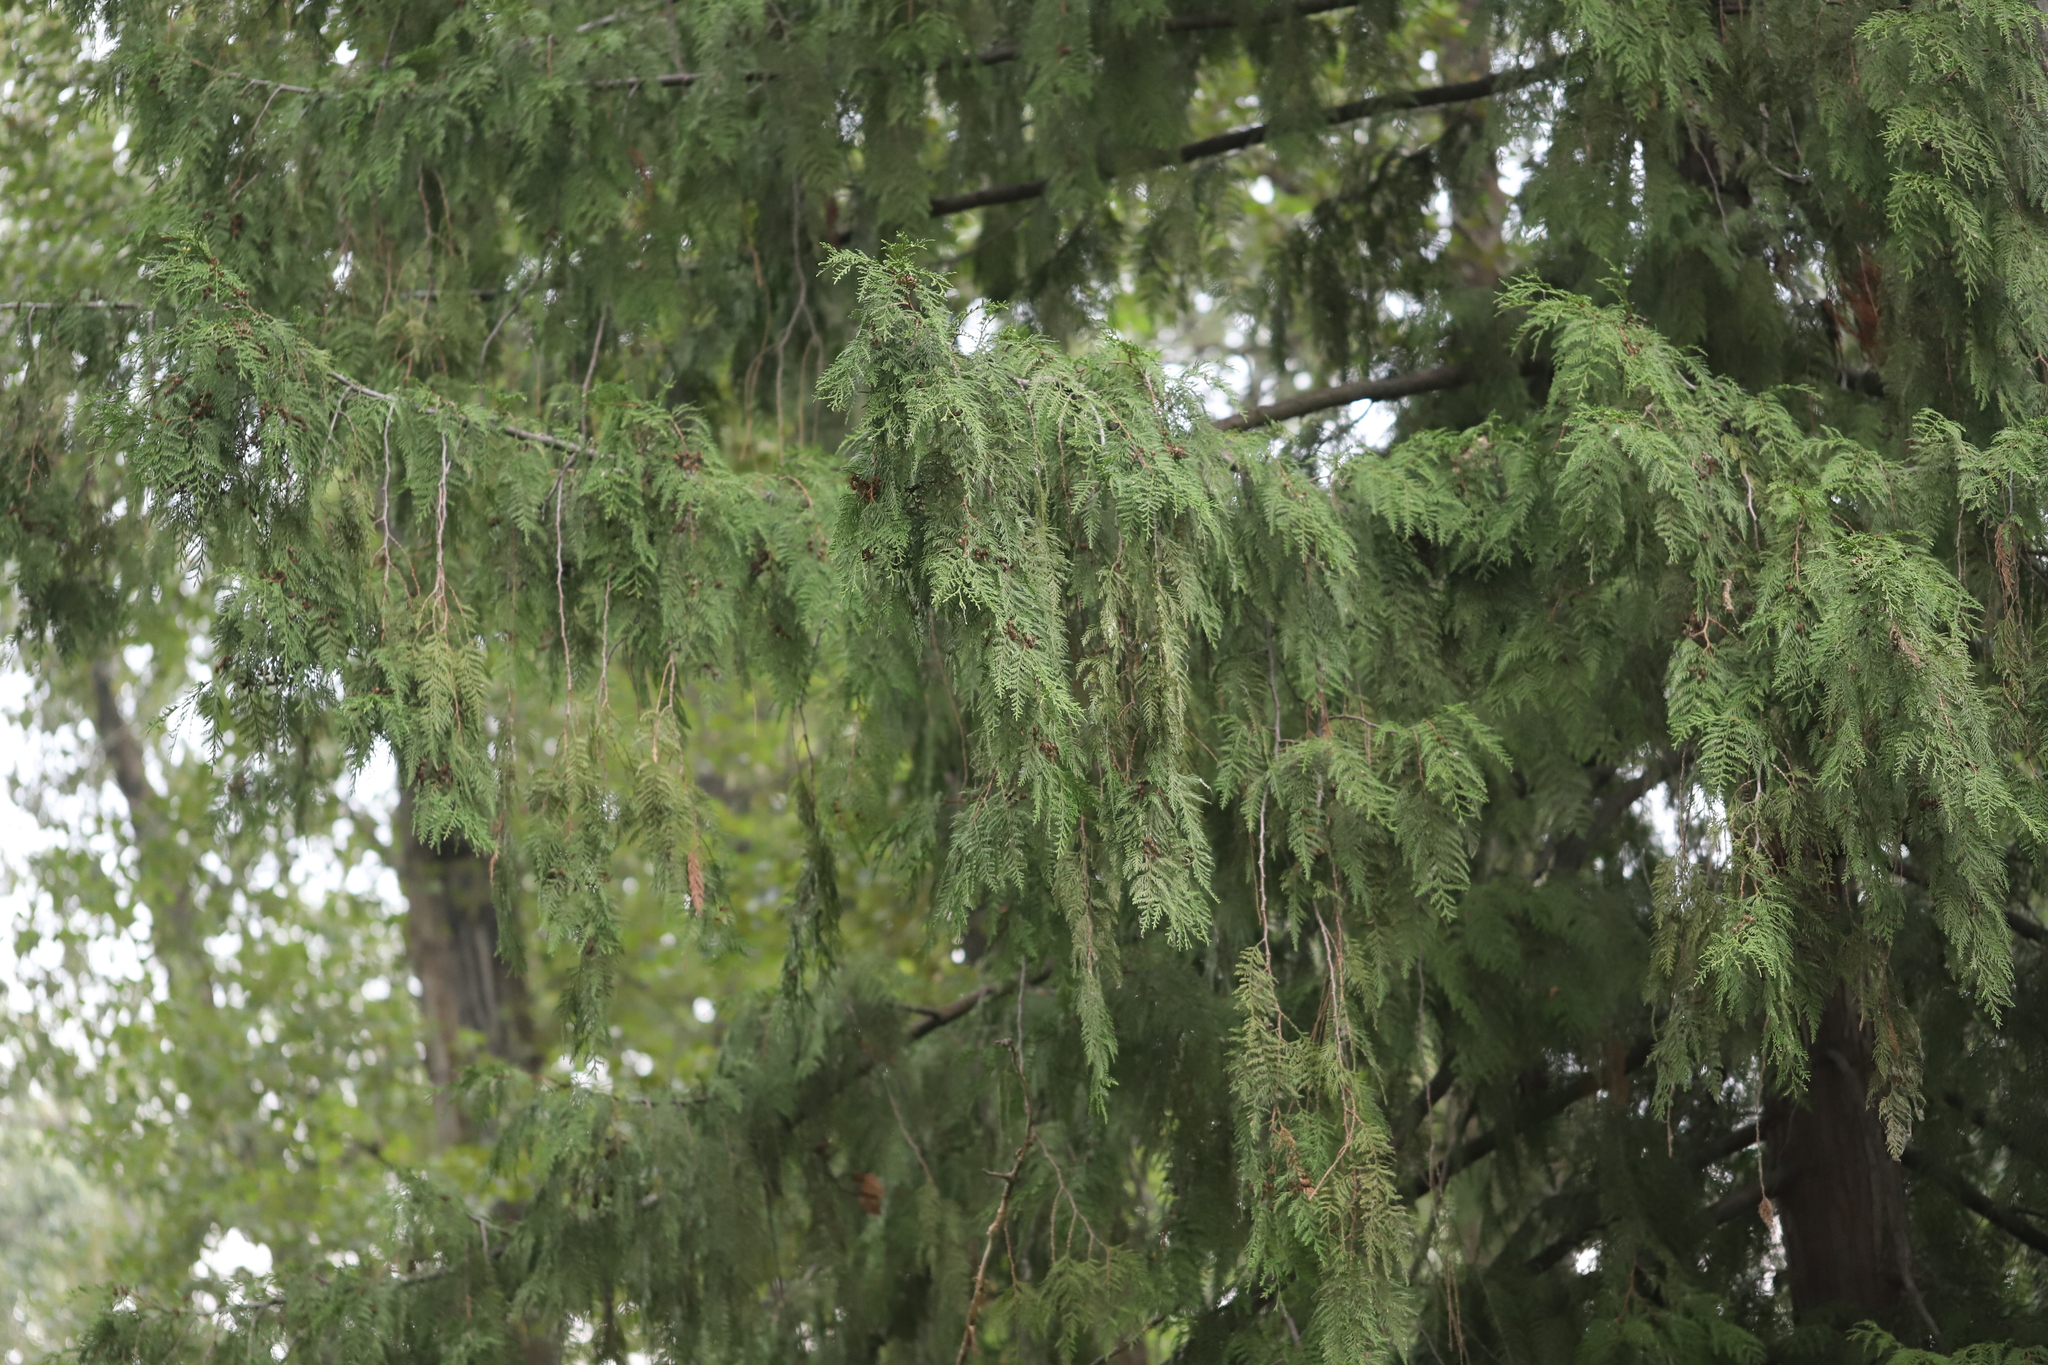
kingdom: Plantae
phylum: Tracheophyta
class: Pinopsida
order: Pinales
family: Cupressaceae
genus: Thuja
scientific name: Thuja plicata
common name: Western red-cedar
